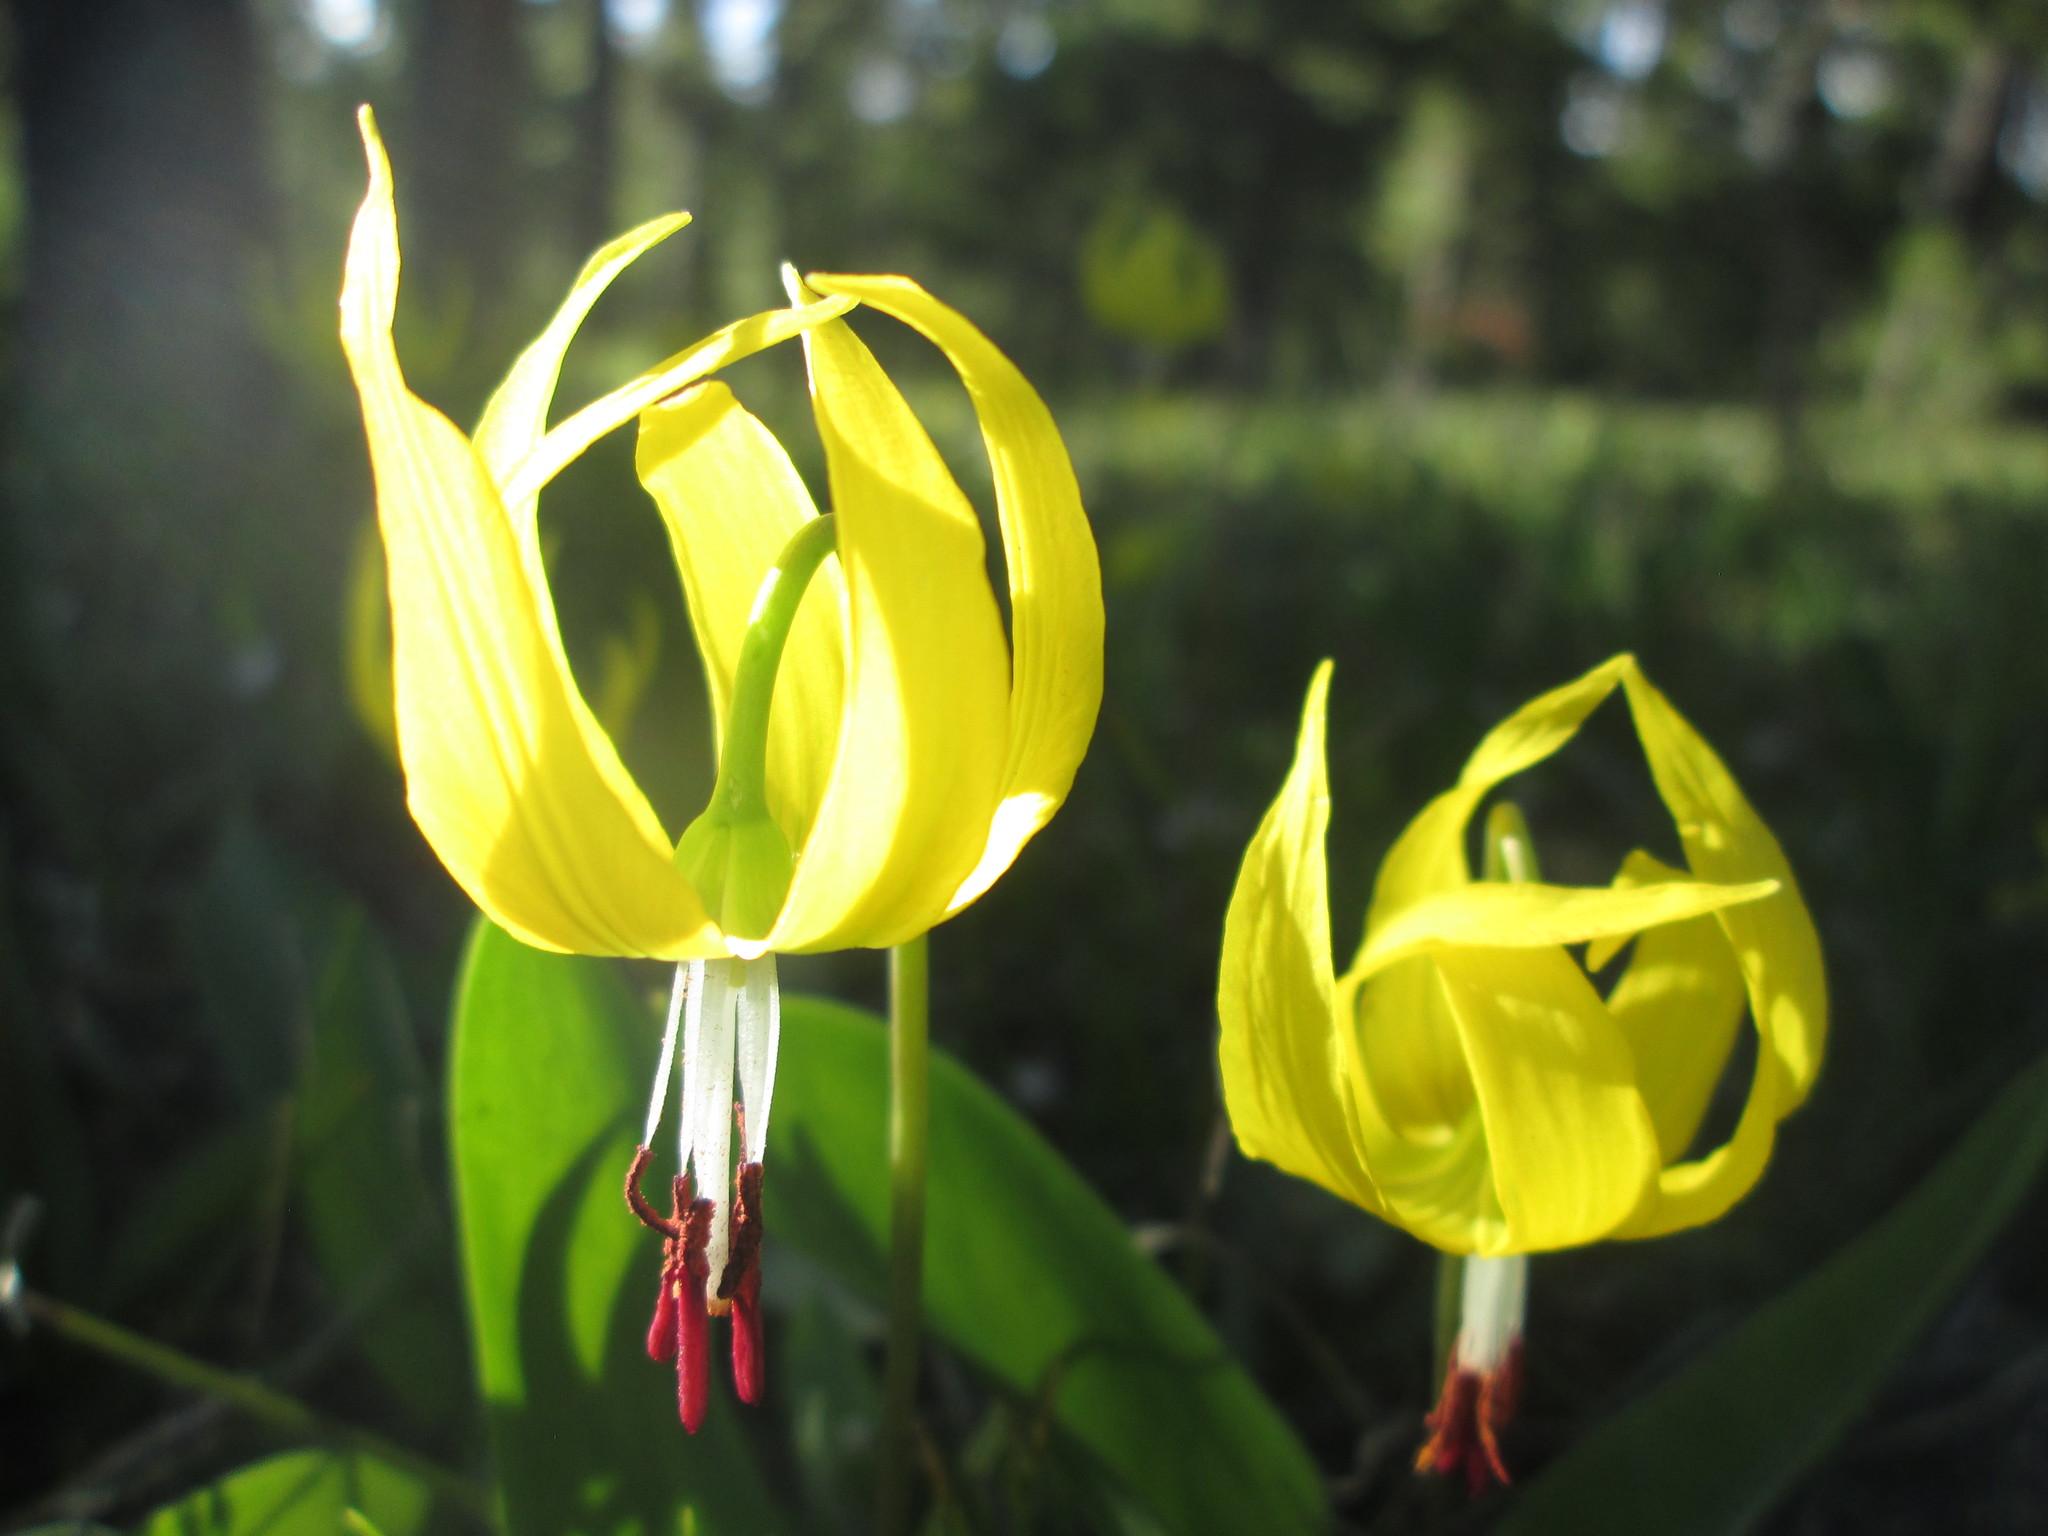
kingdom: Plantae
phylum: Tracheophyta
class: Liliopsida
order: Liliales
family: Liliaceae
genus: Erythronium
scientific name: Erythronium grandiflorum
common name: Avalanche-lily
